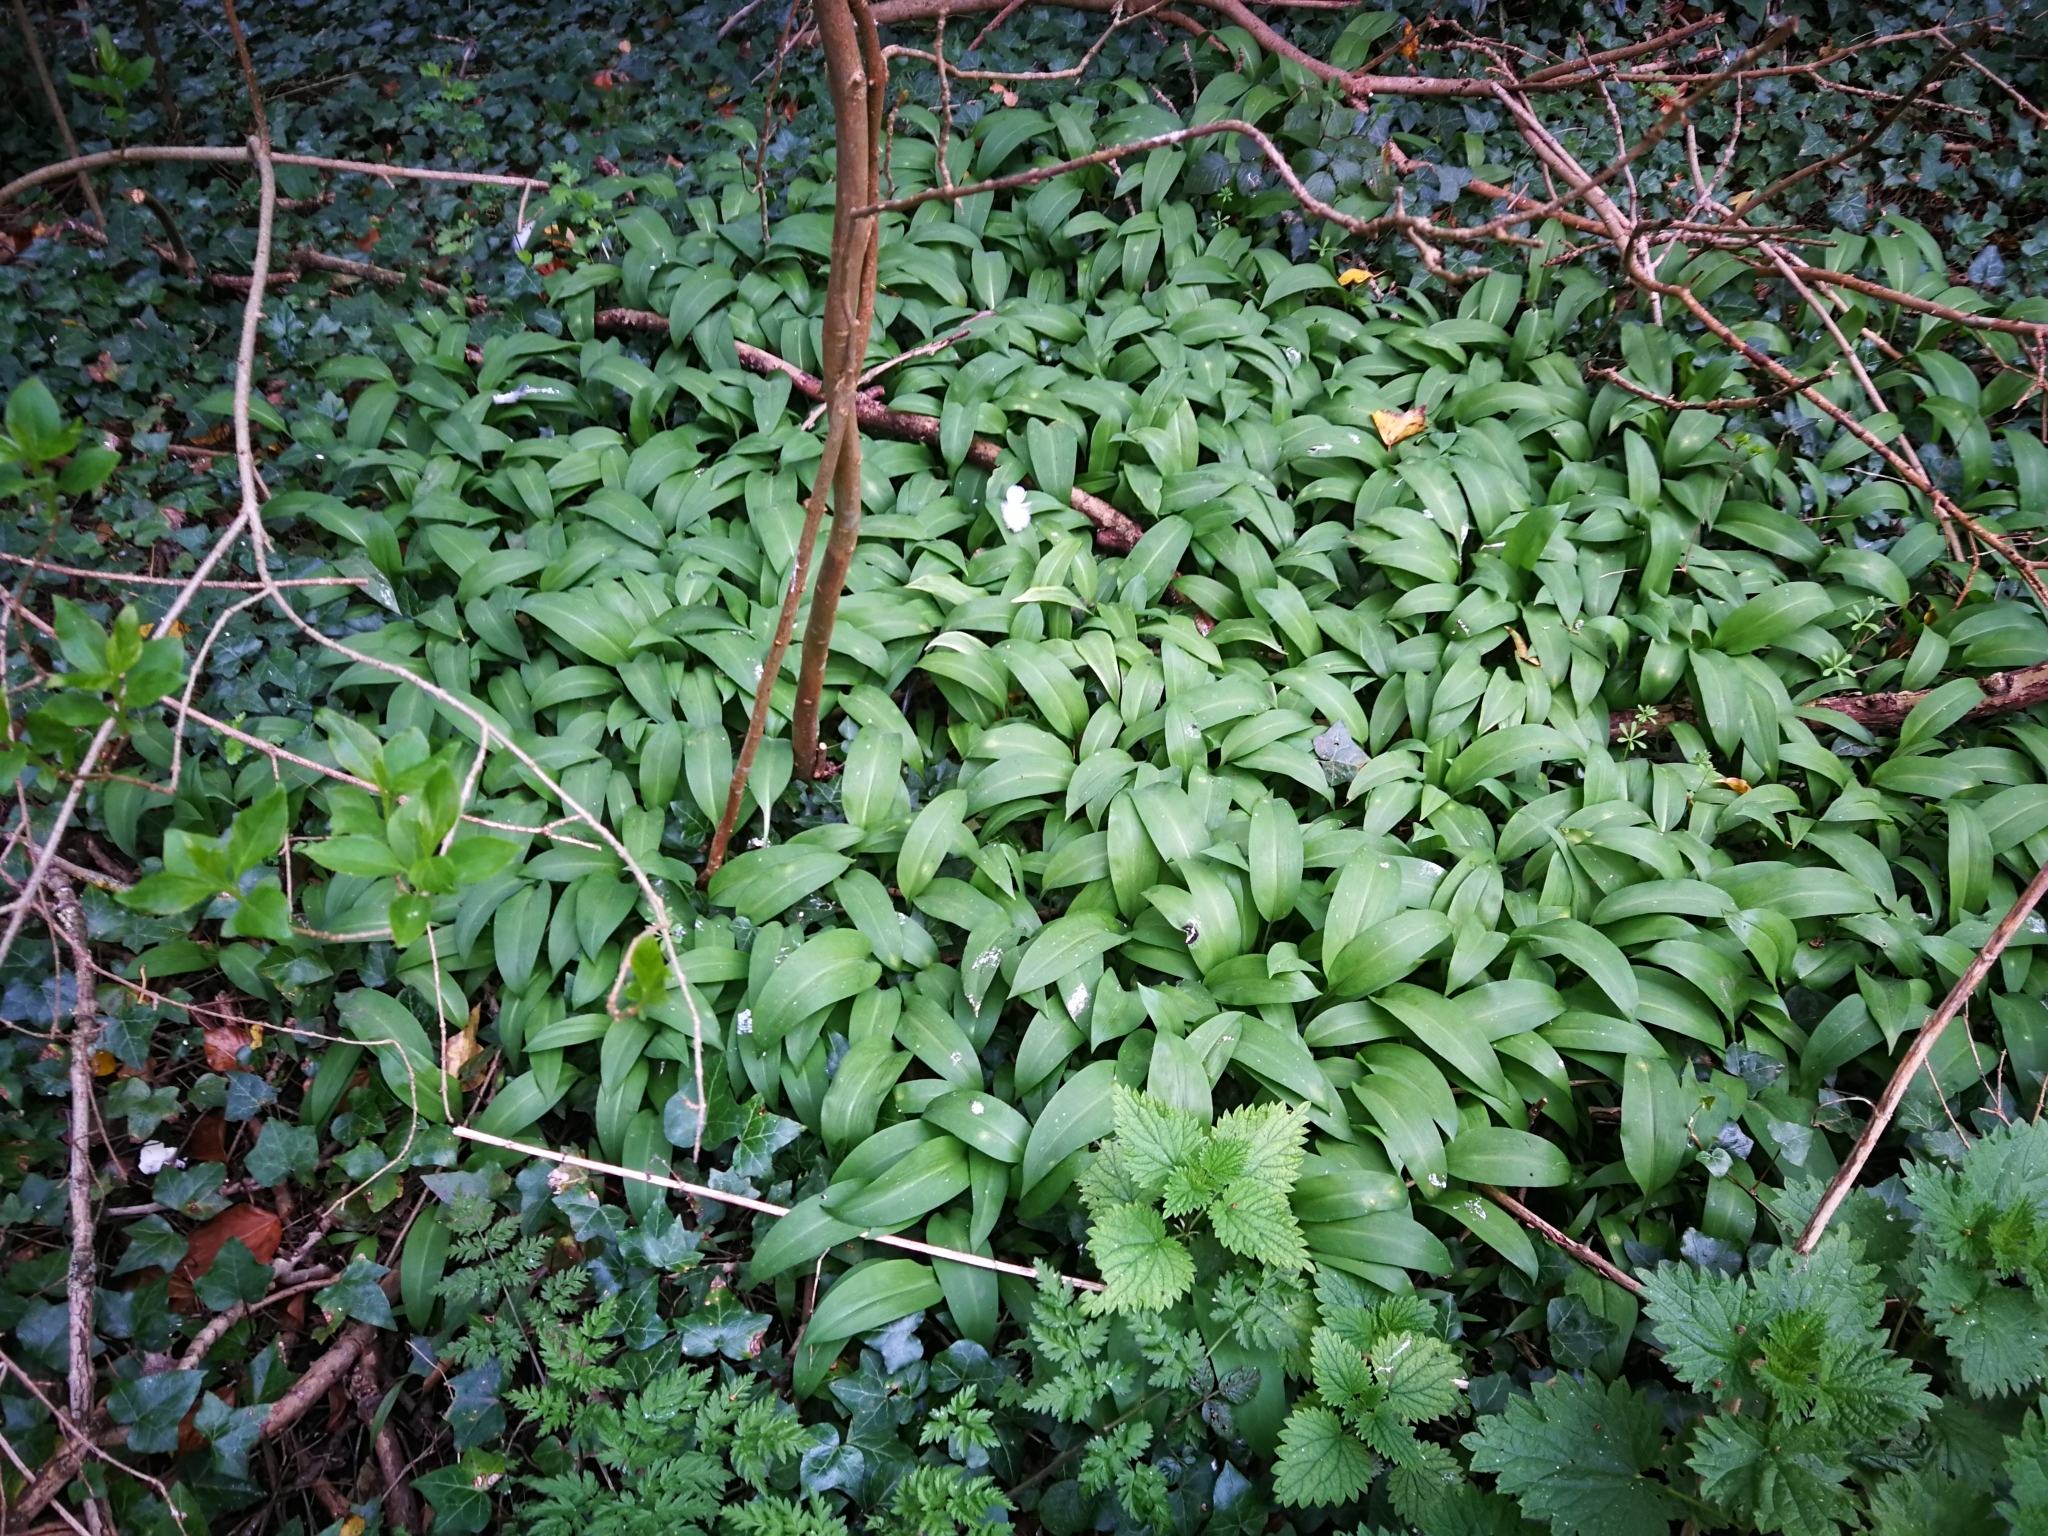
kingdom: Plantae
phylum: Tracheophyta
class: Liliopsida
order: Asparagales
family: Amaryllidaceae
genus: Allium
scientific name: Allium ursinum
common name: Ramsons
